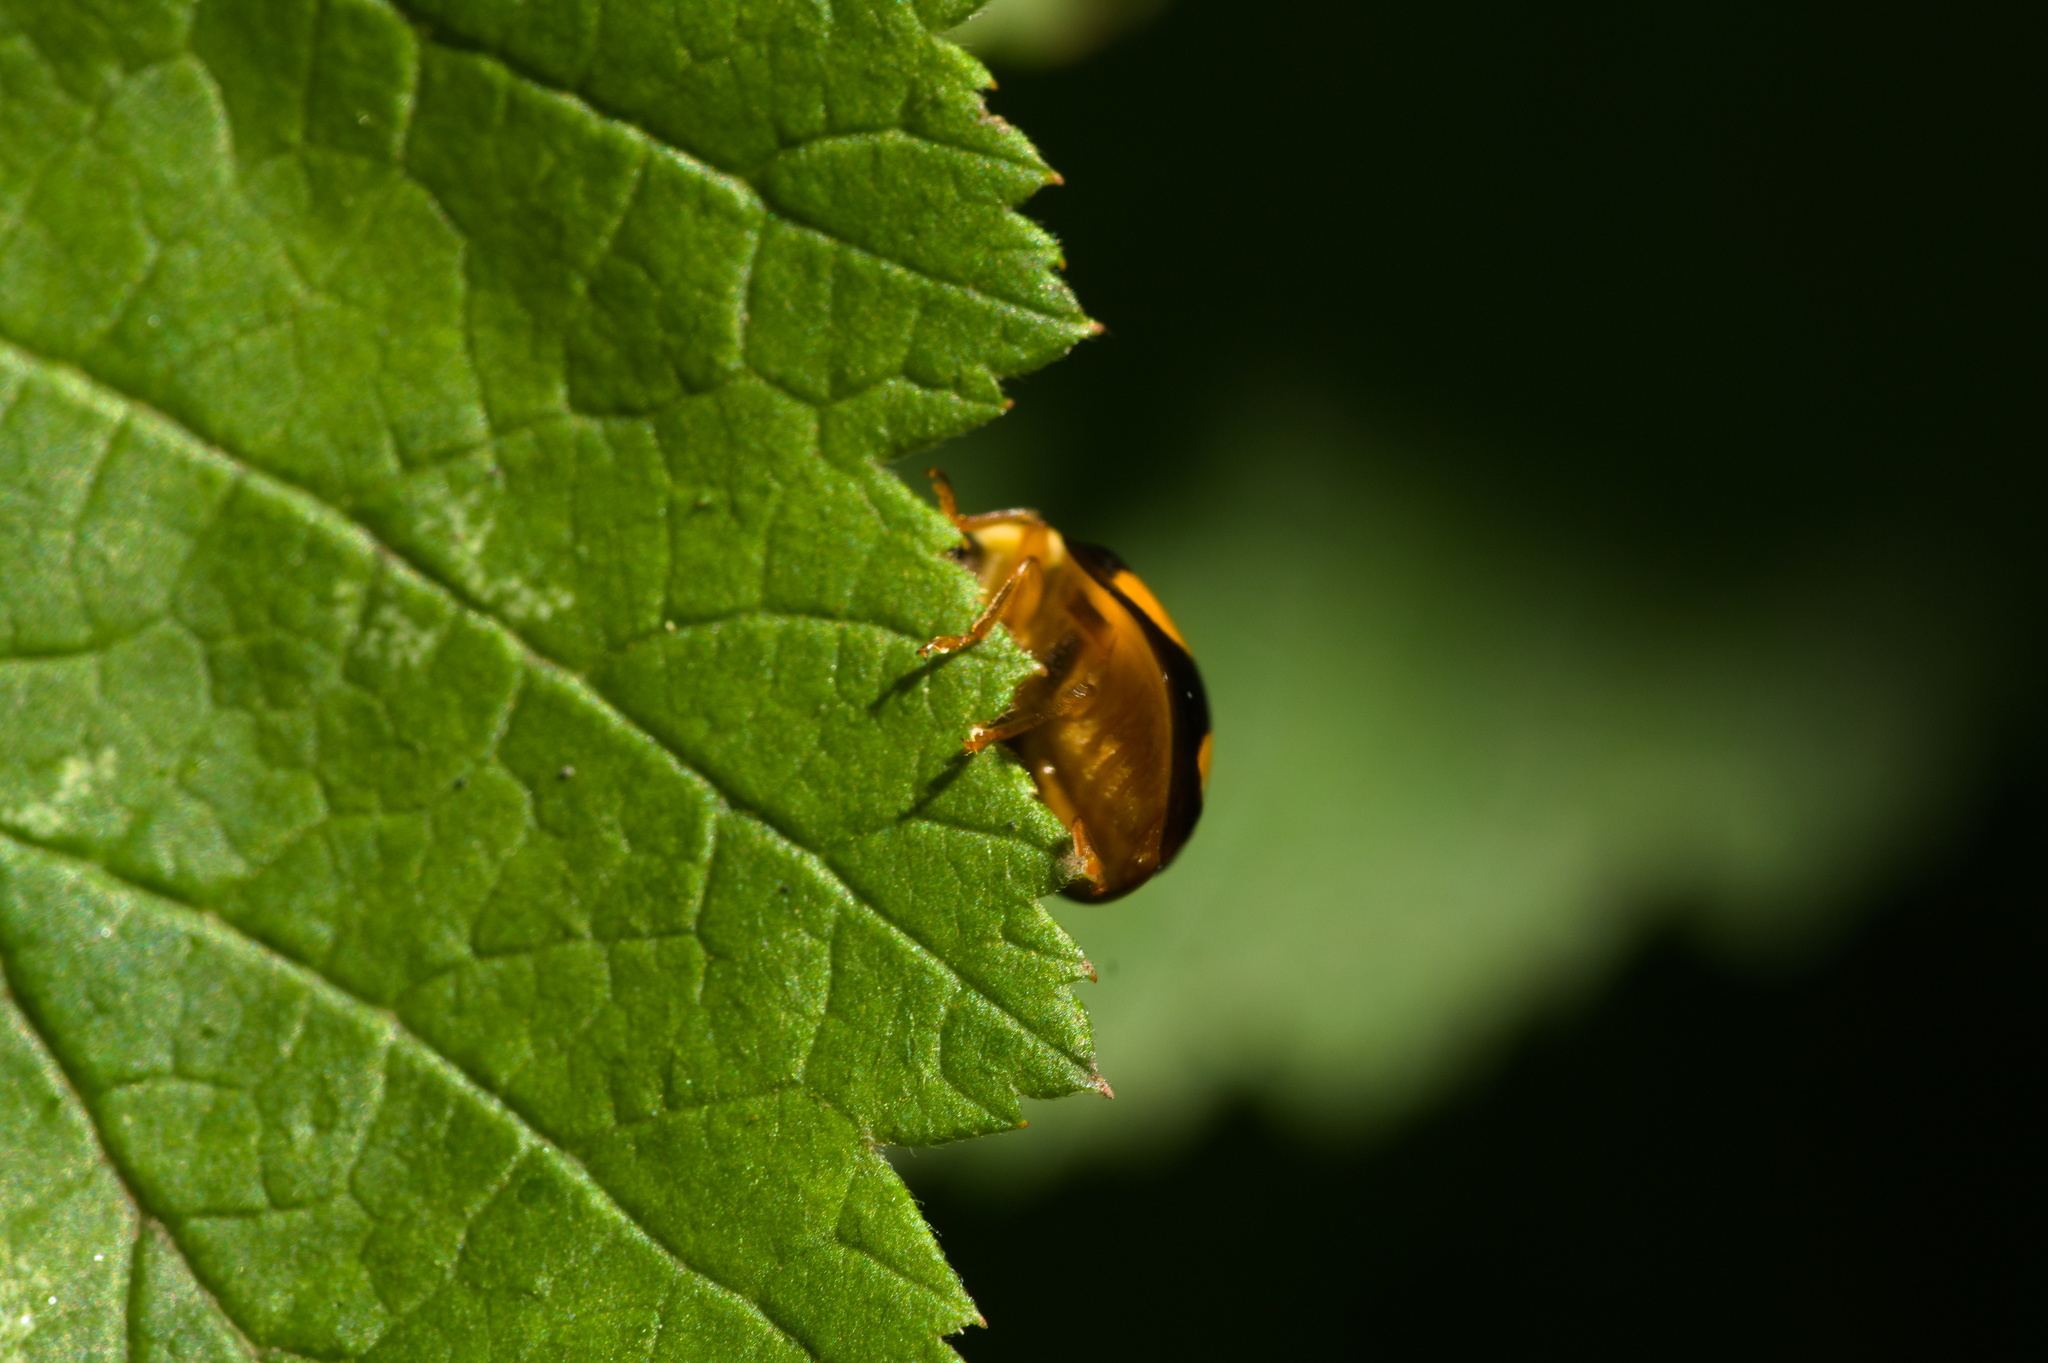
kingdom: Animalia
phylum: Arthropoda
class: Insecta
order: Coleoptera
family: Coccinellidae
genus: Harmonia
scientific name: Harmonia axyridis
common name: Harlequin ladybird
